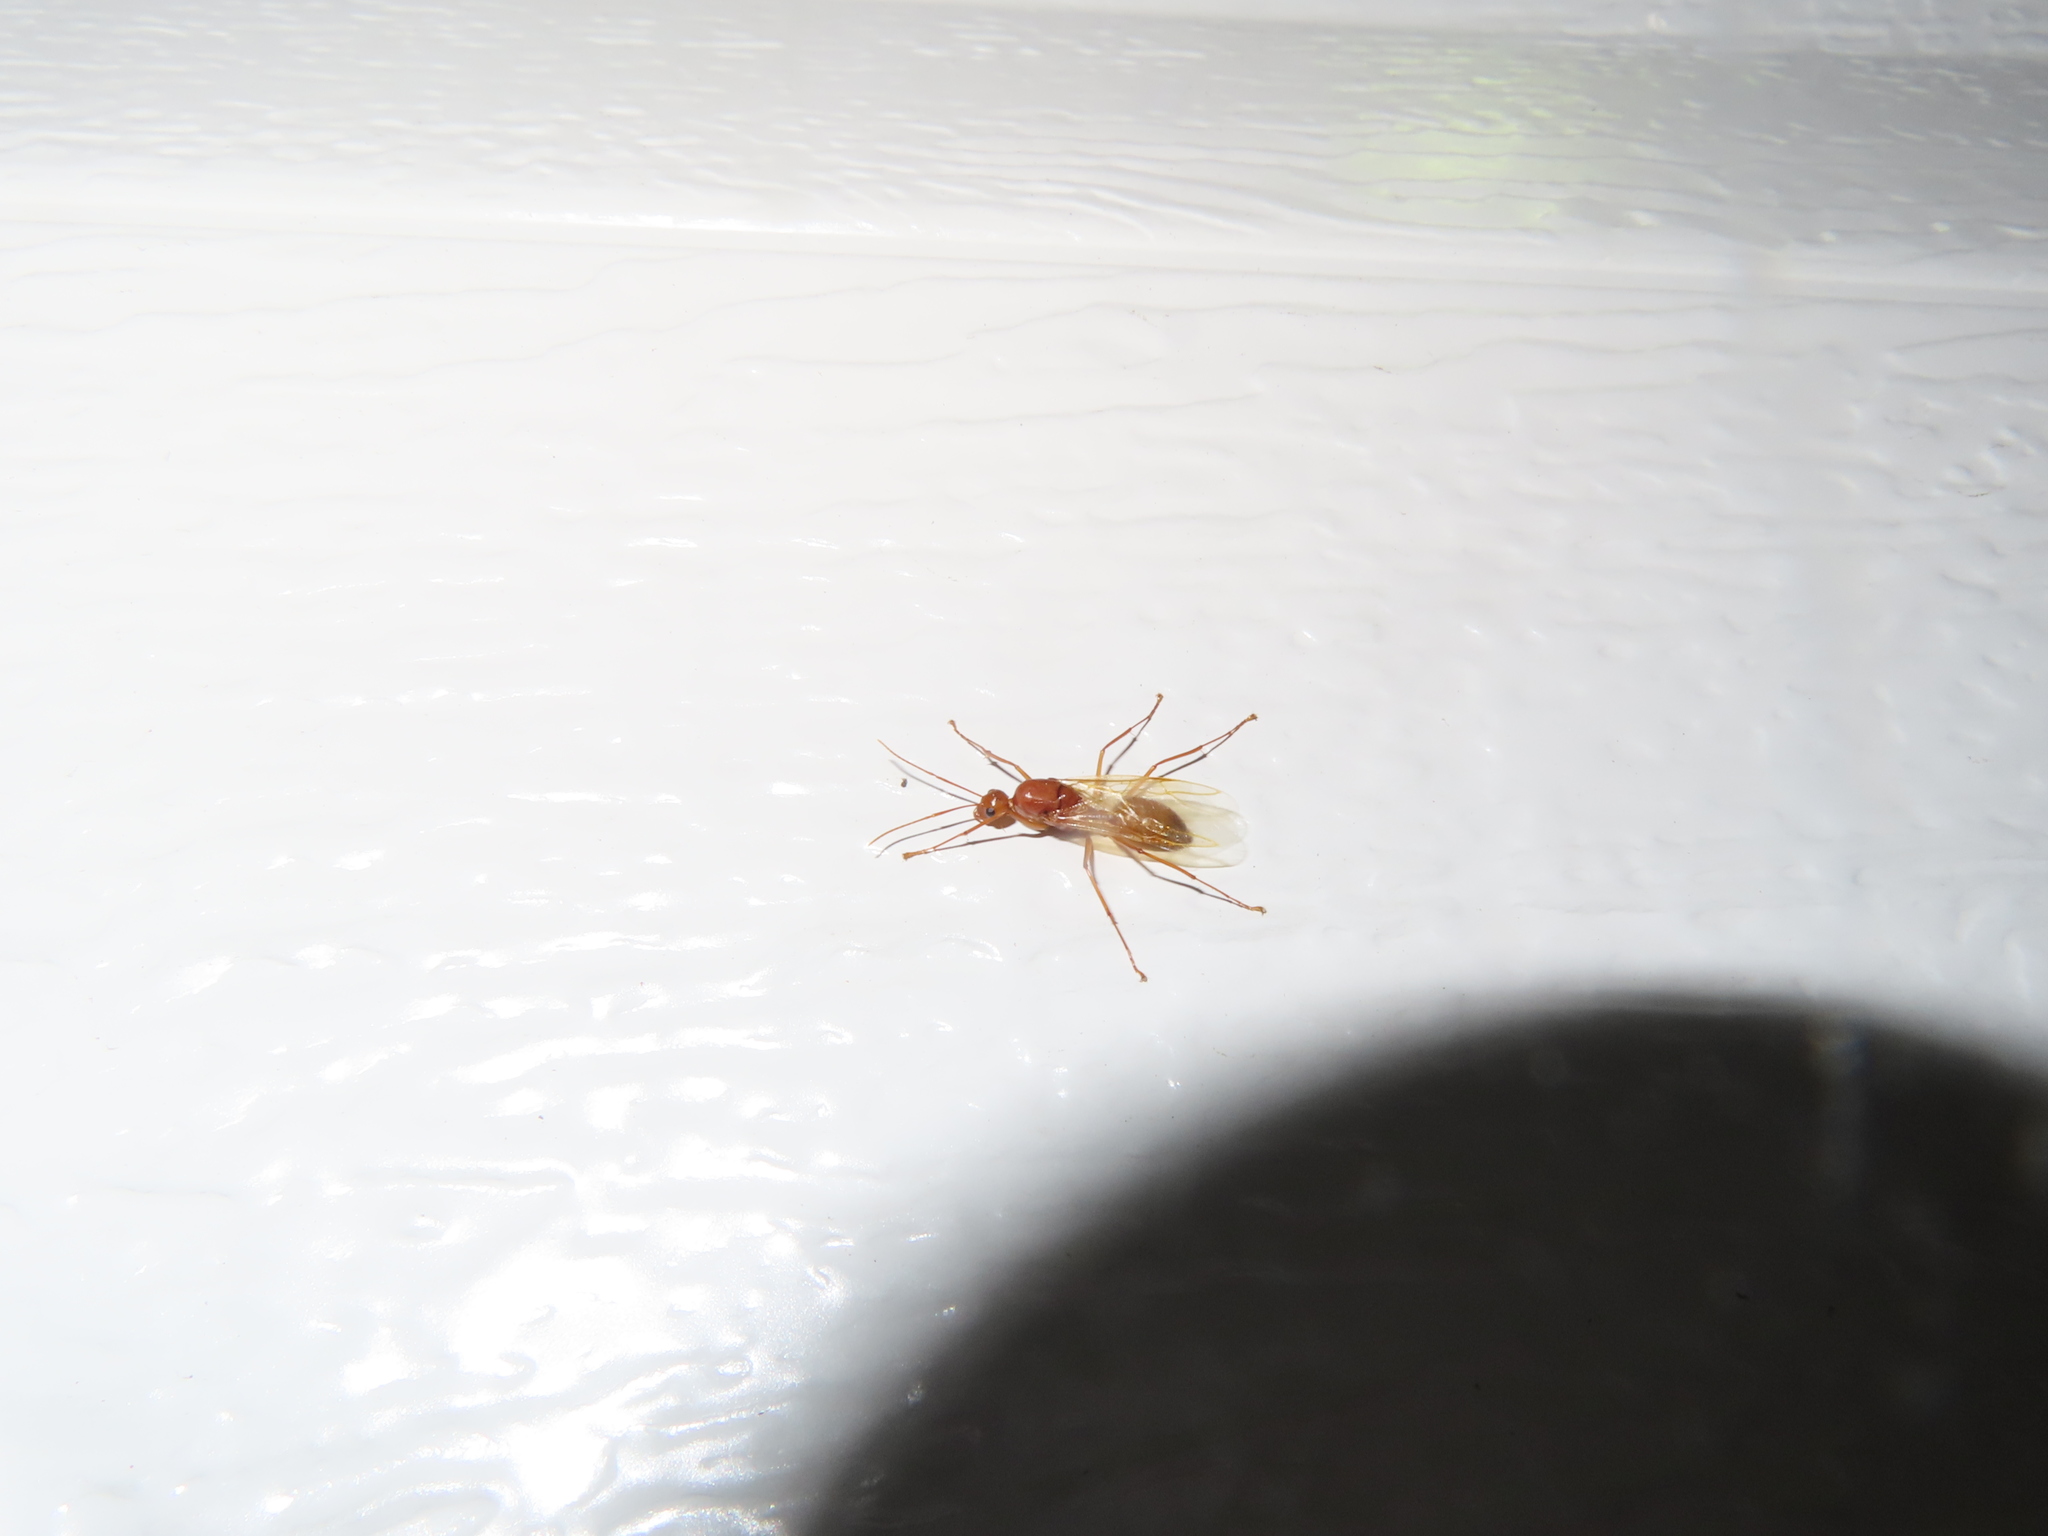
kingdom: Animalia
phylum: Arthropoda
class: Insecta
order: Hymenoptera
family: Formicidae
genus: Camponotus
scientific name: Camponotus castaneus
